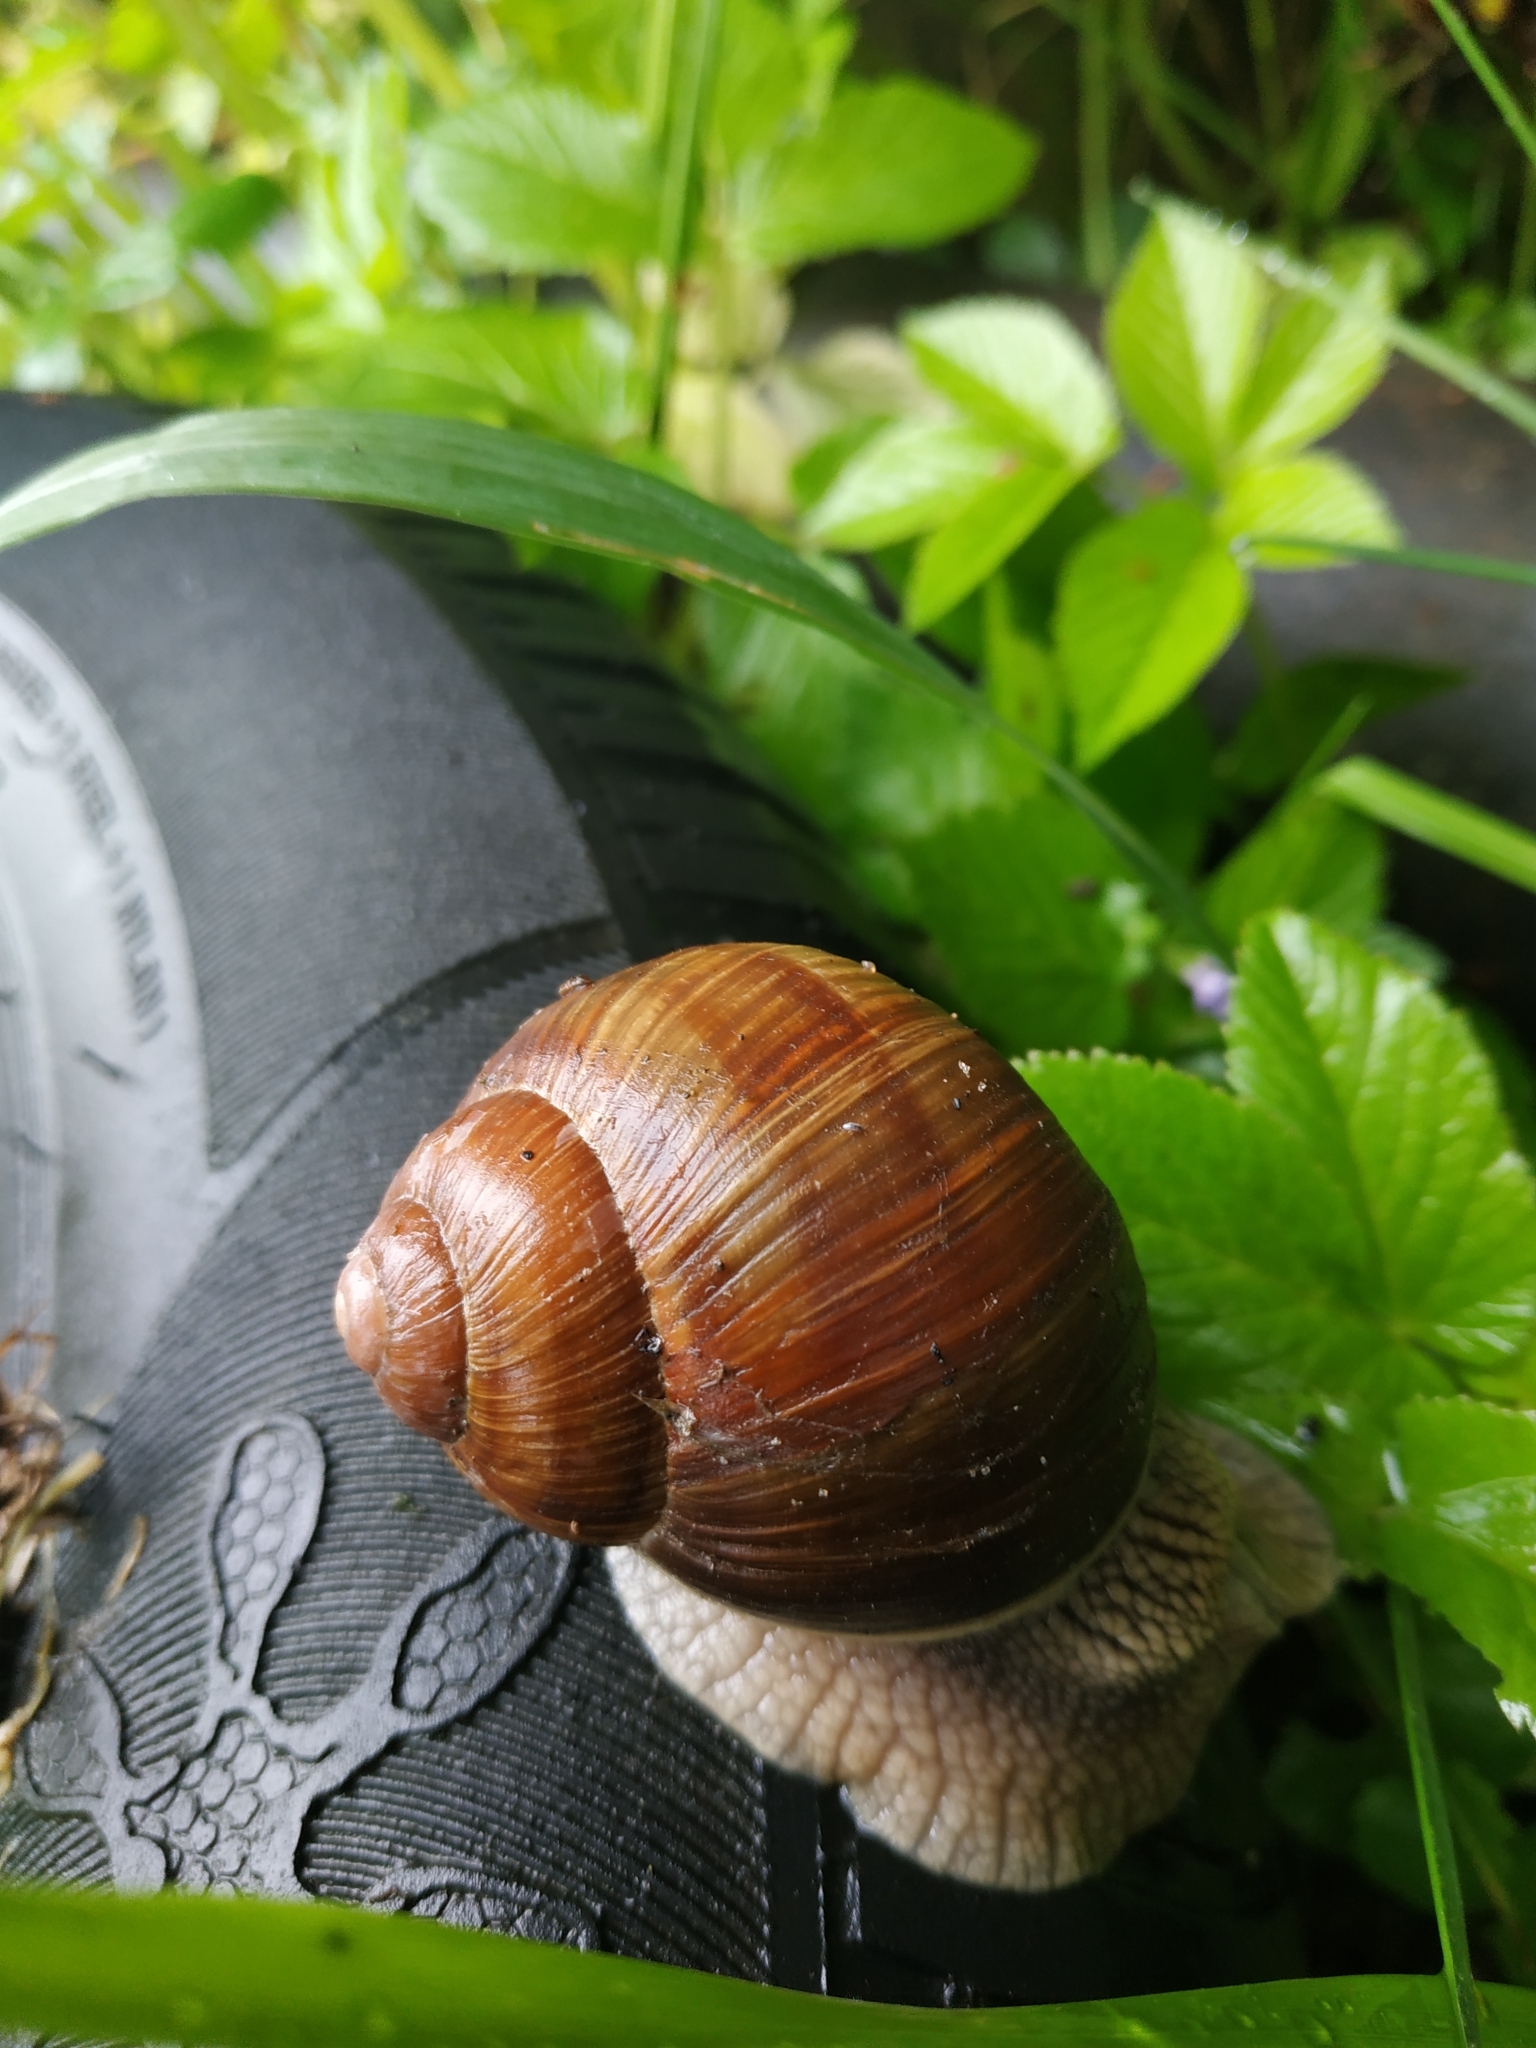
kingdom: Animalia
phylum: Mollusca
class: Gastropoda
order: Stylommatophora
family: Helicidae
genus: Helix
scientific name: Helix pomatia
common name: Roman snail
